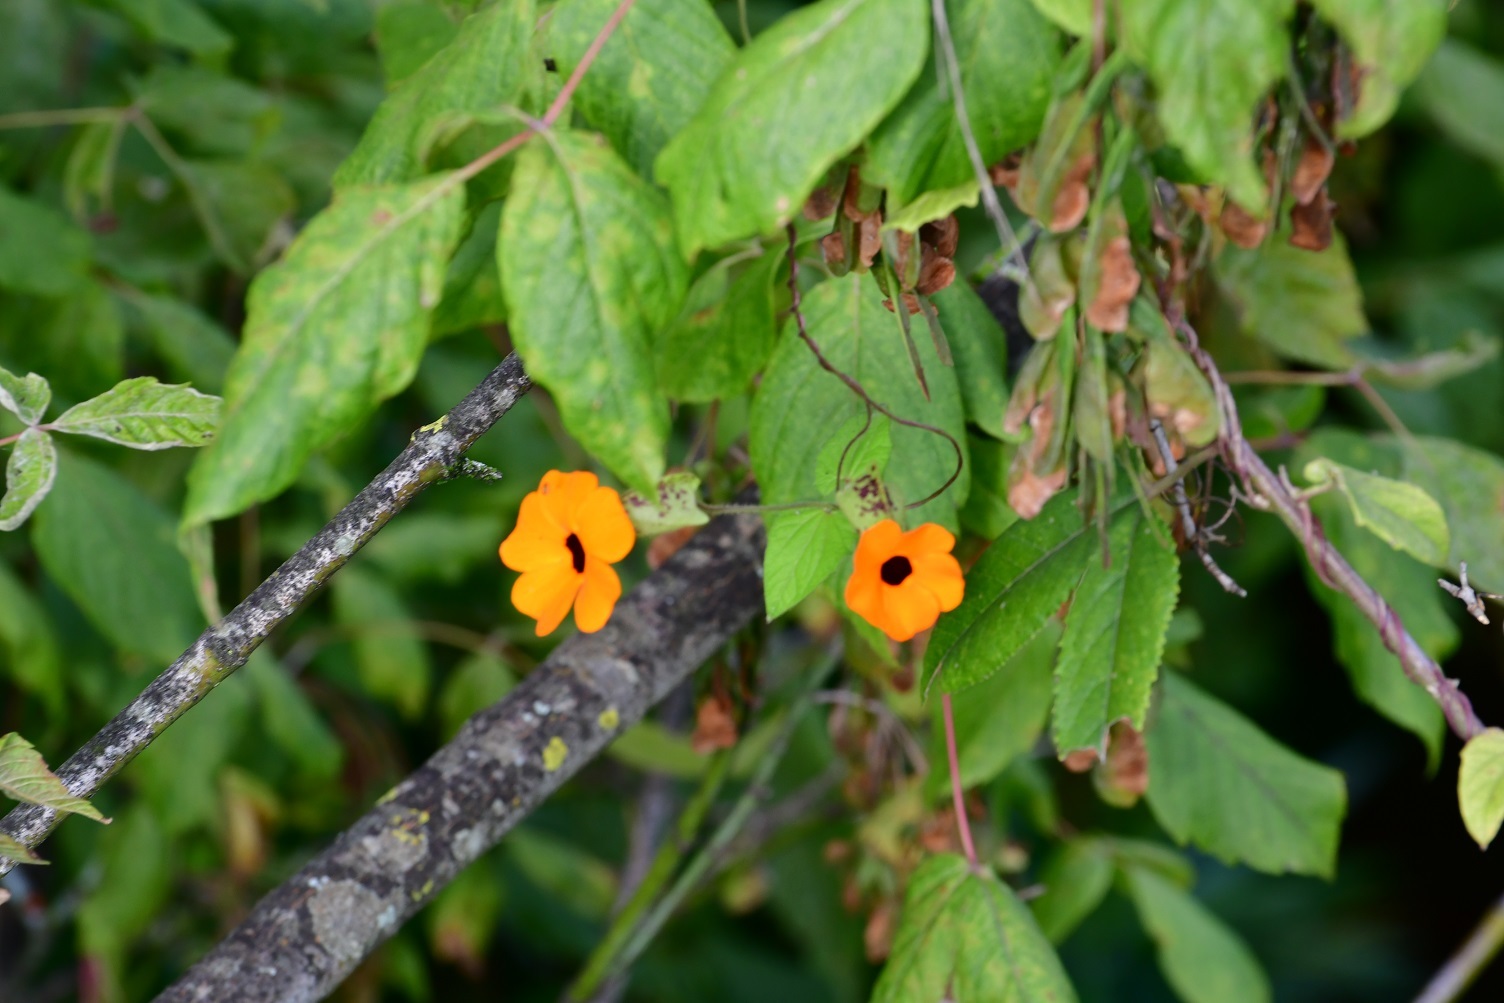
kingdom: Plantae
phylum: Tracheophyta
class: Magnoliopsida
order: Lamiales
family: Acanthaceae
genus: Thunbergia
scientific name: Thunbergia alata
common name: Blackeyed susan vine
